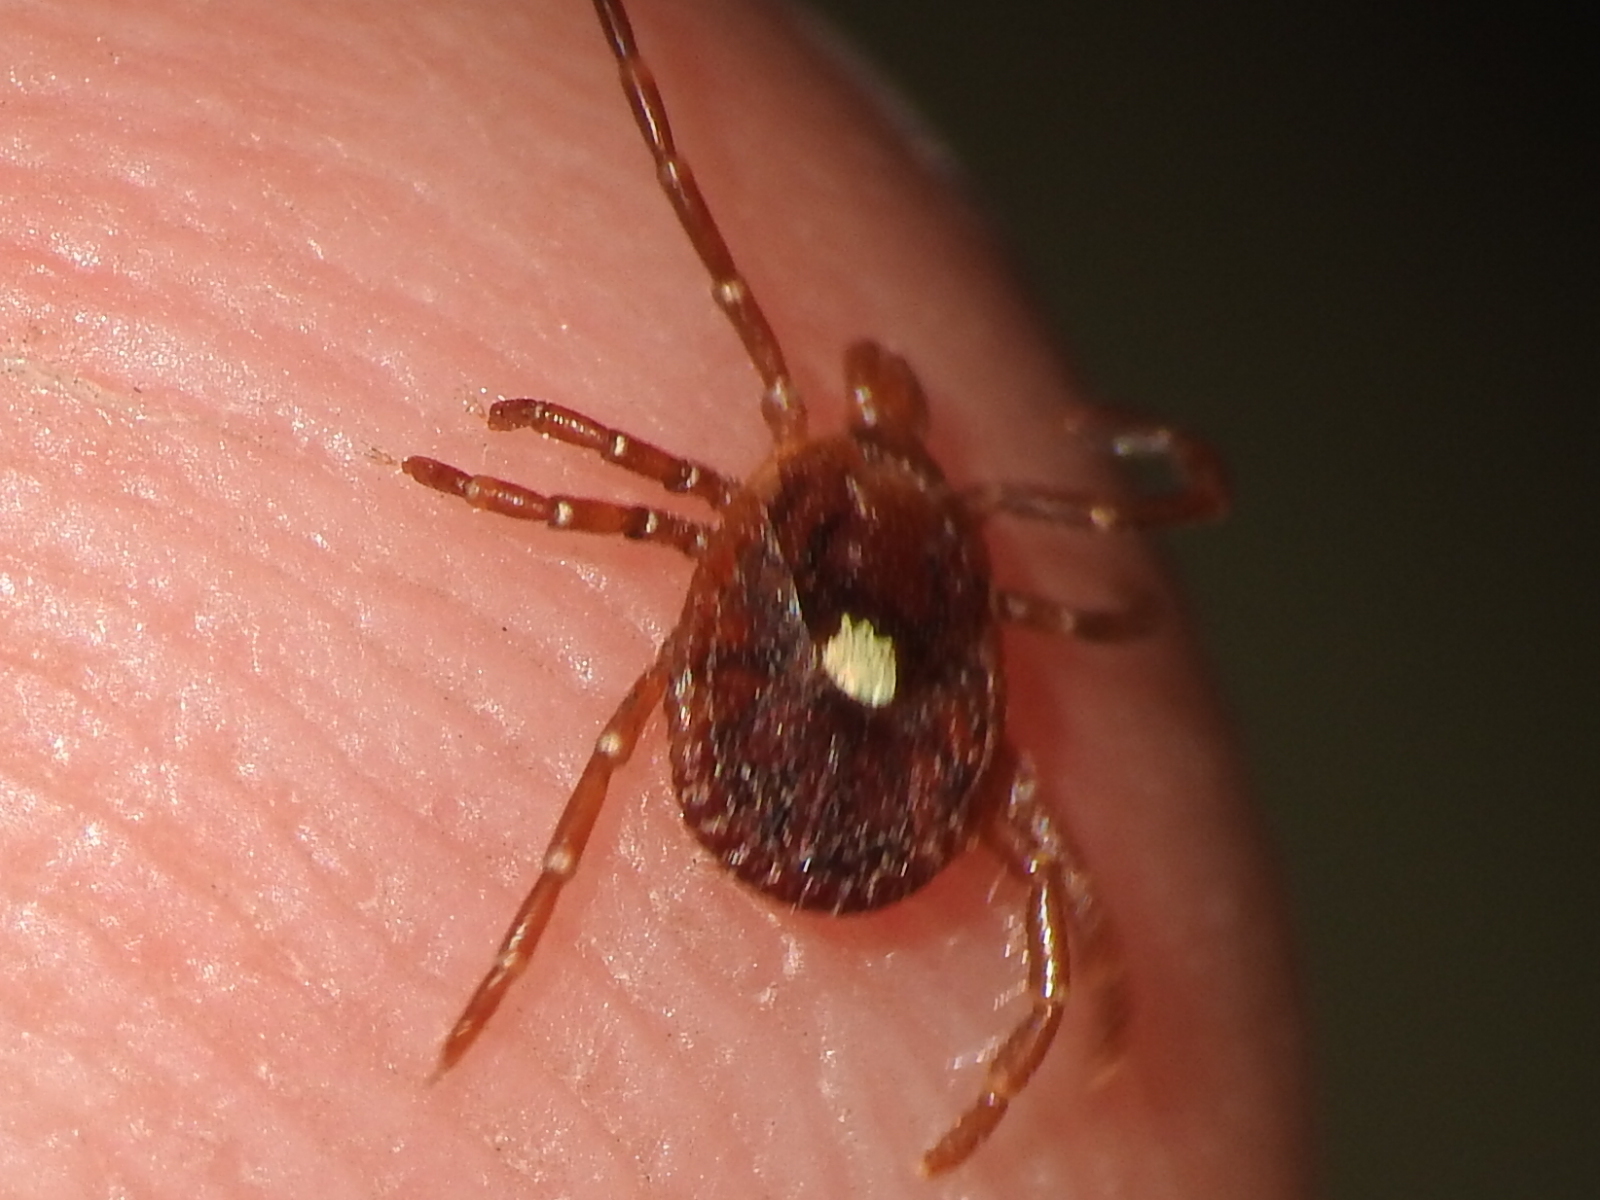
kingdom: Animalia
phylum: Arthropoda
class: Arachnida
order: Ixodida
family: Ixodidae
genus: Amblyomma
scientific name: Amblyomma americanum
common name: Lone star tick
